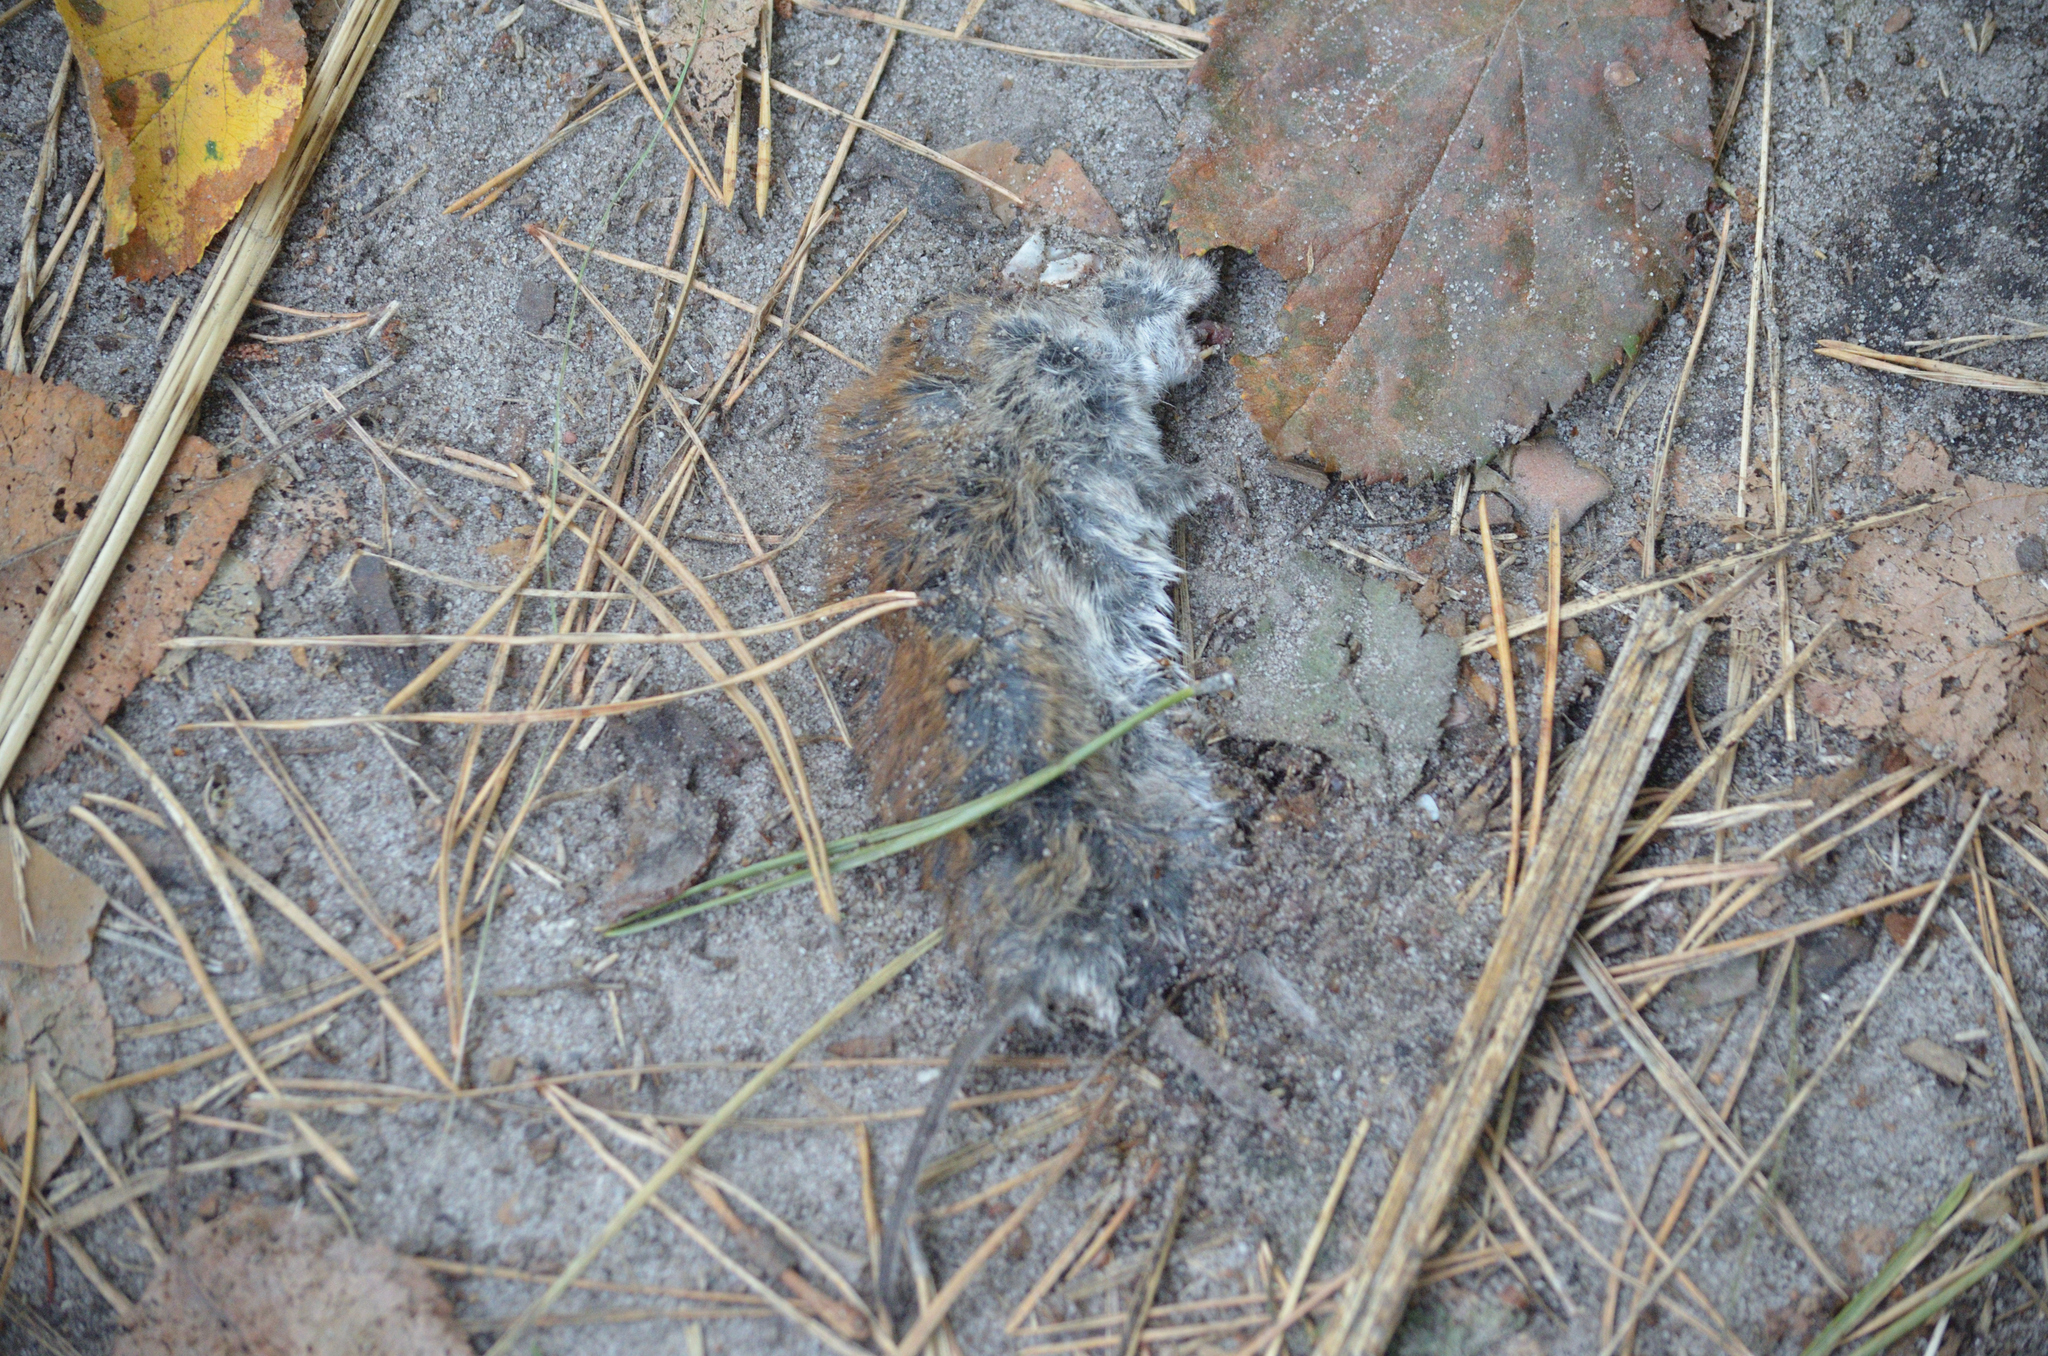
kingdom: Animalia
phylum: Chordata
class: Mammalia
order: Rodentia
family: Cricetidae
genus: Myodes
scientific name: Myodes glareolus
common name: Bank vole
